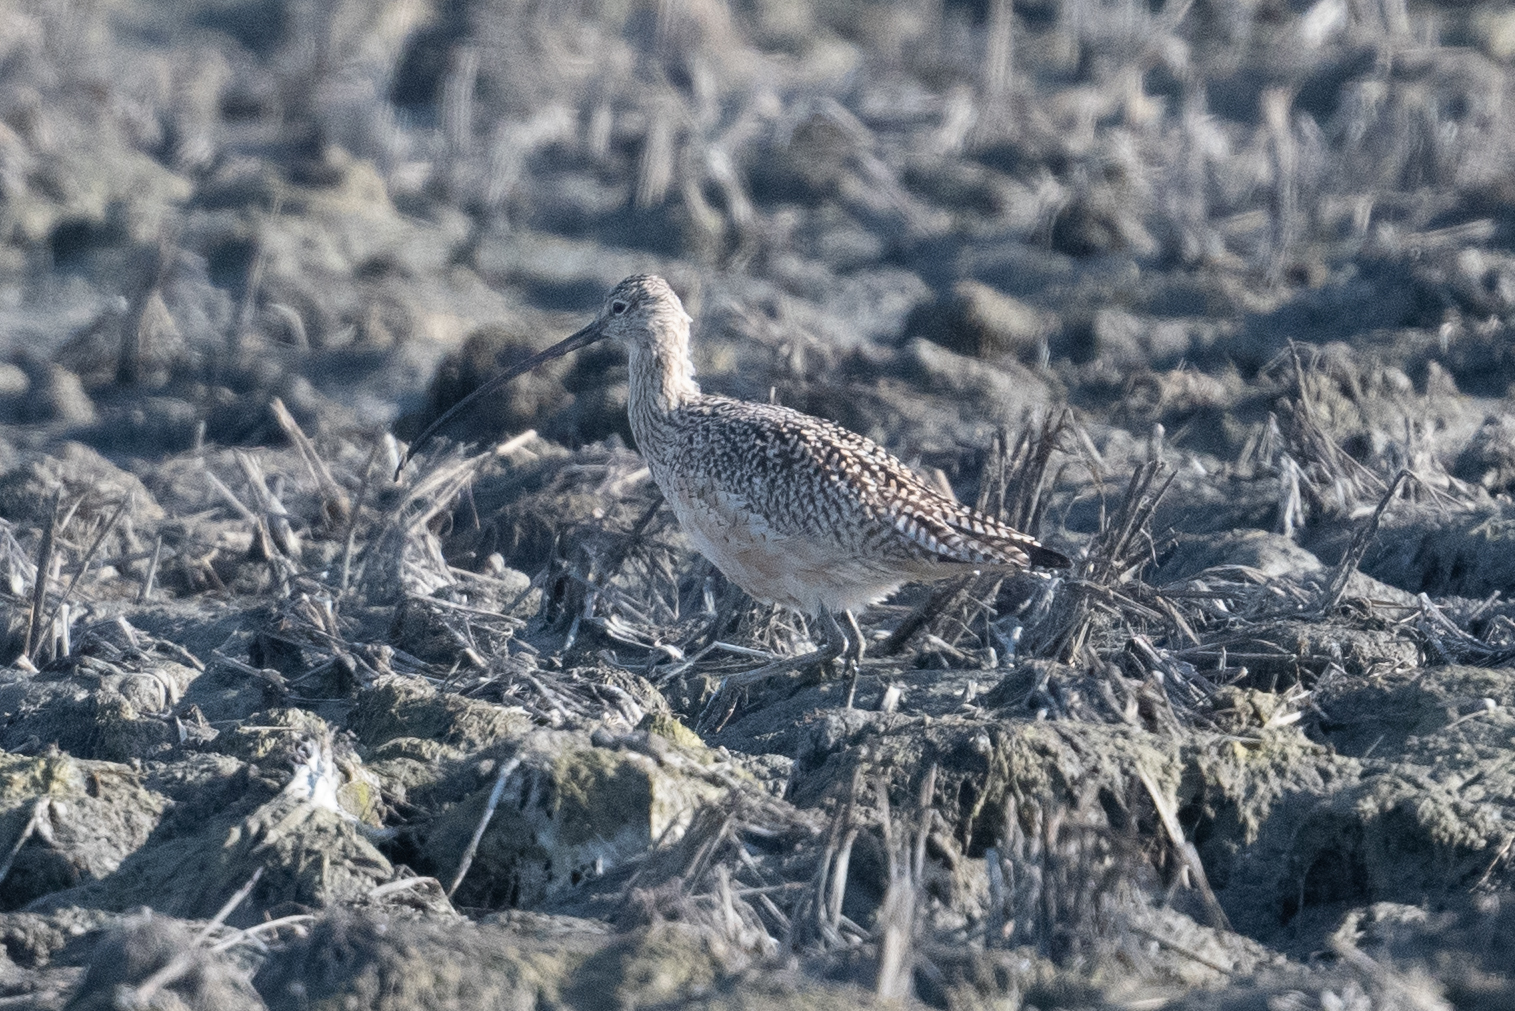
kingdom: Animalia
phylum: Chordata
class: Aves
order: Charadriiformes
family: Scolopacidae
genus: Numenius
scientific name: Numenius americanus
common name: Long-billed curlew
